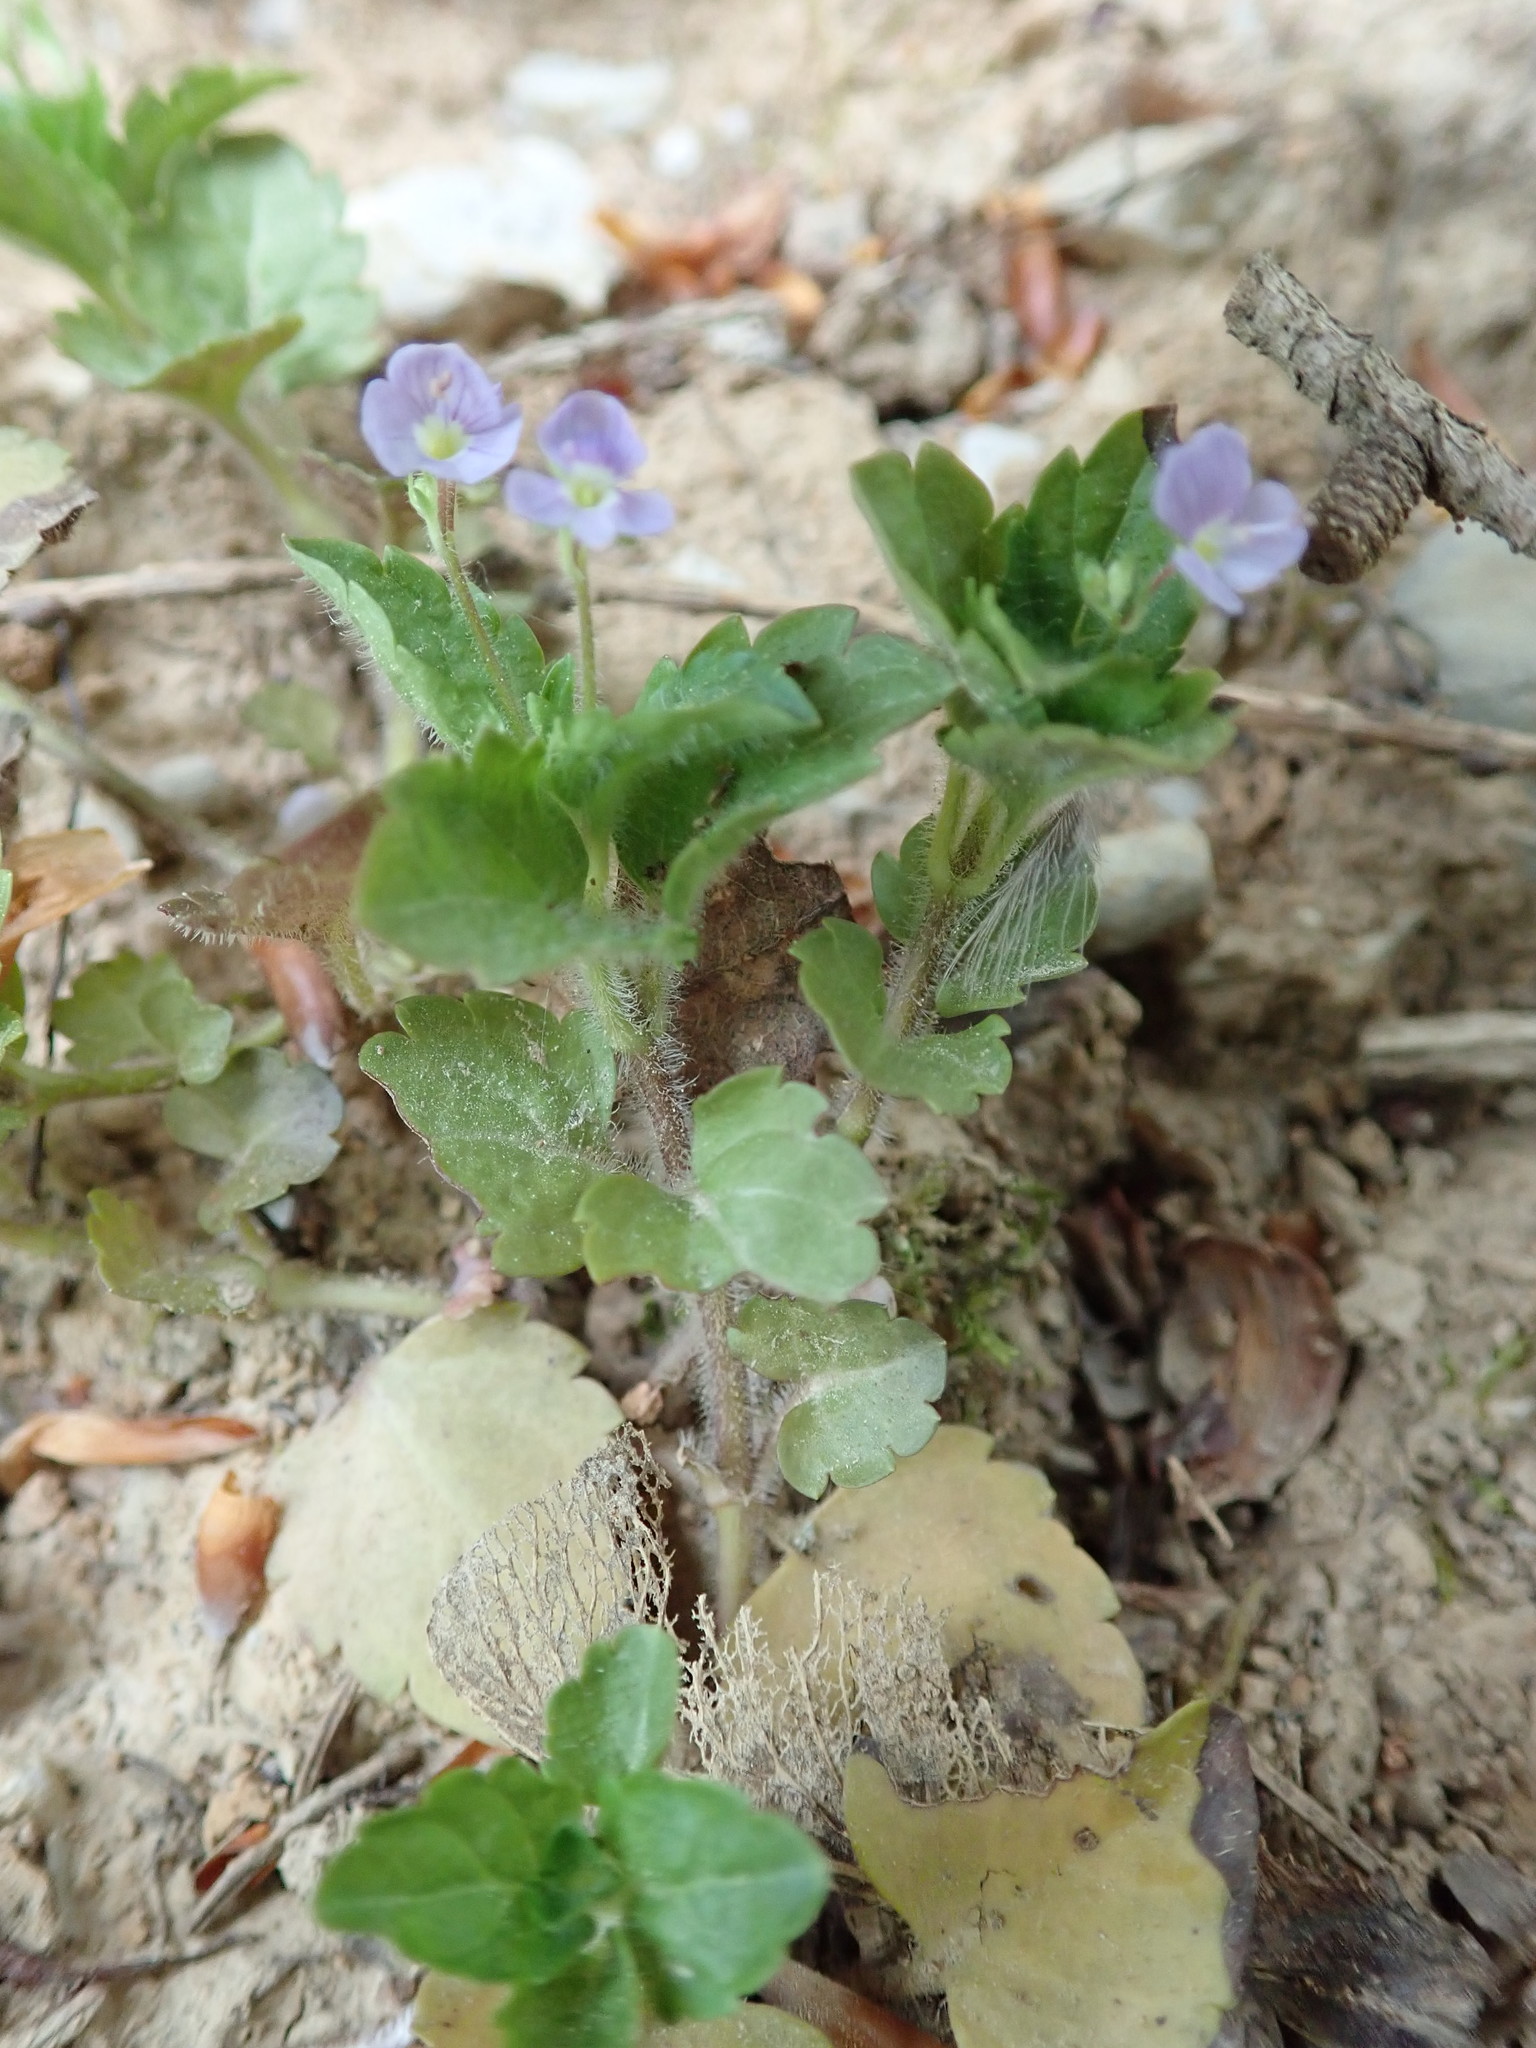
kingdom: Plantae
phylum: Tracheophyta
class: Magnoliopsida
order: Lamiales
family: Plantaginaceae
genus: Veronica
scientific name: Veronica montana
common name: Wood speedwell
